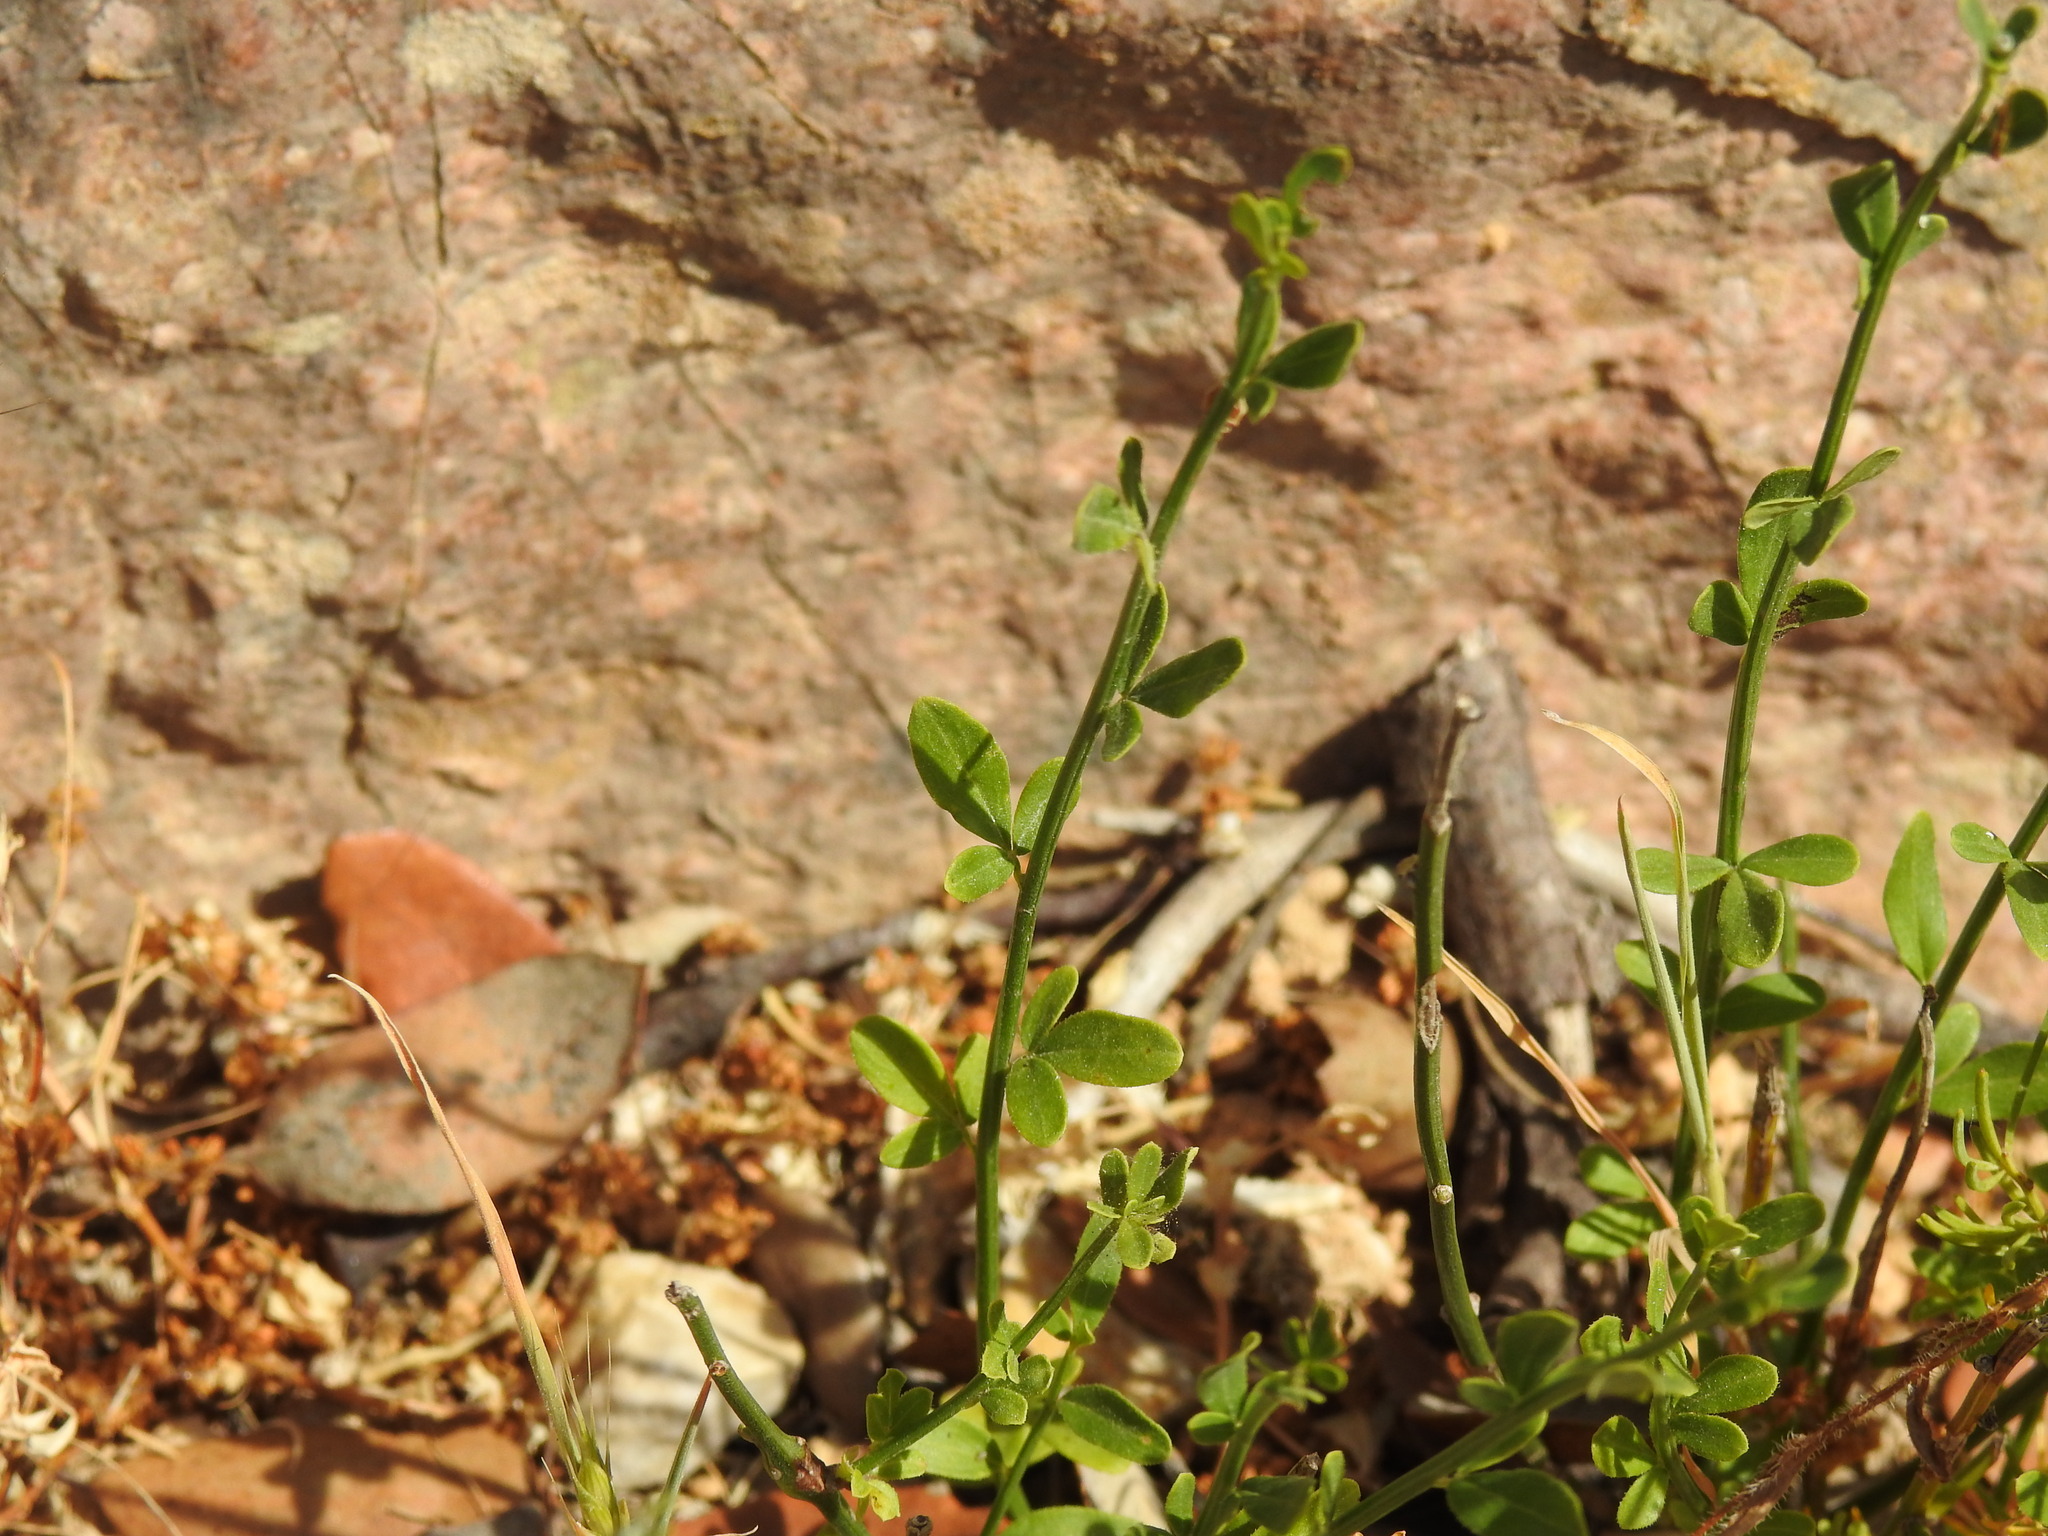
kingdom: Plantae
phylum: Tracheophyta
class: Magnoliopsida
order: Lamiales
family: Oleaceae
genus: Chrysojasminum
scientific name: Chrysojasminum fruticans
